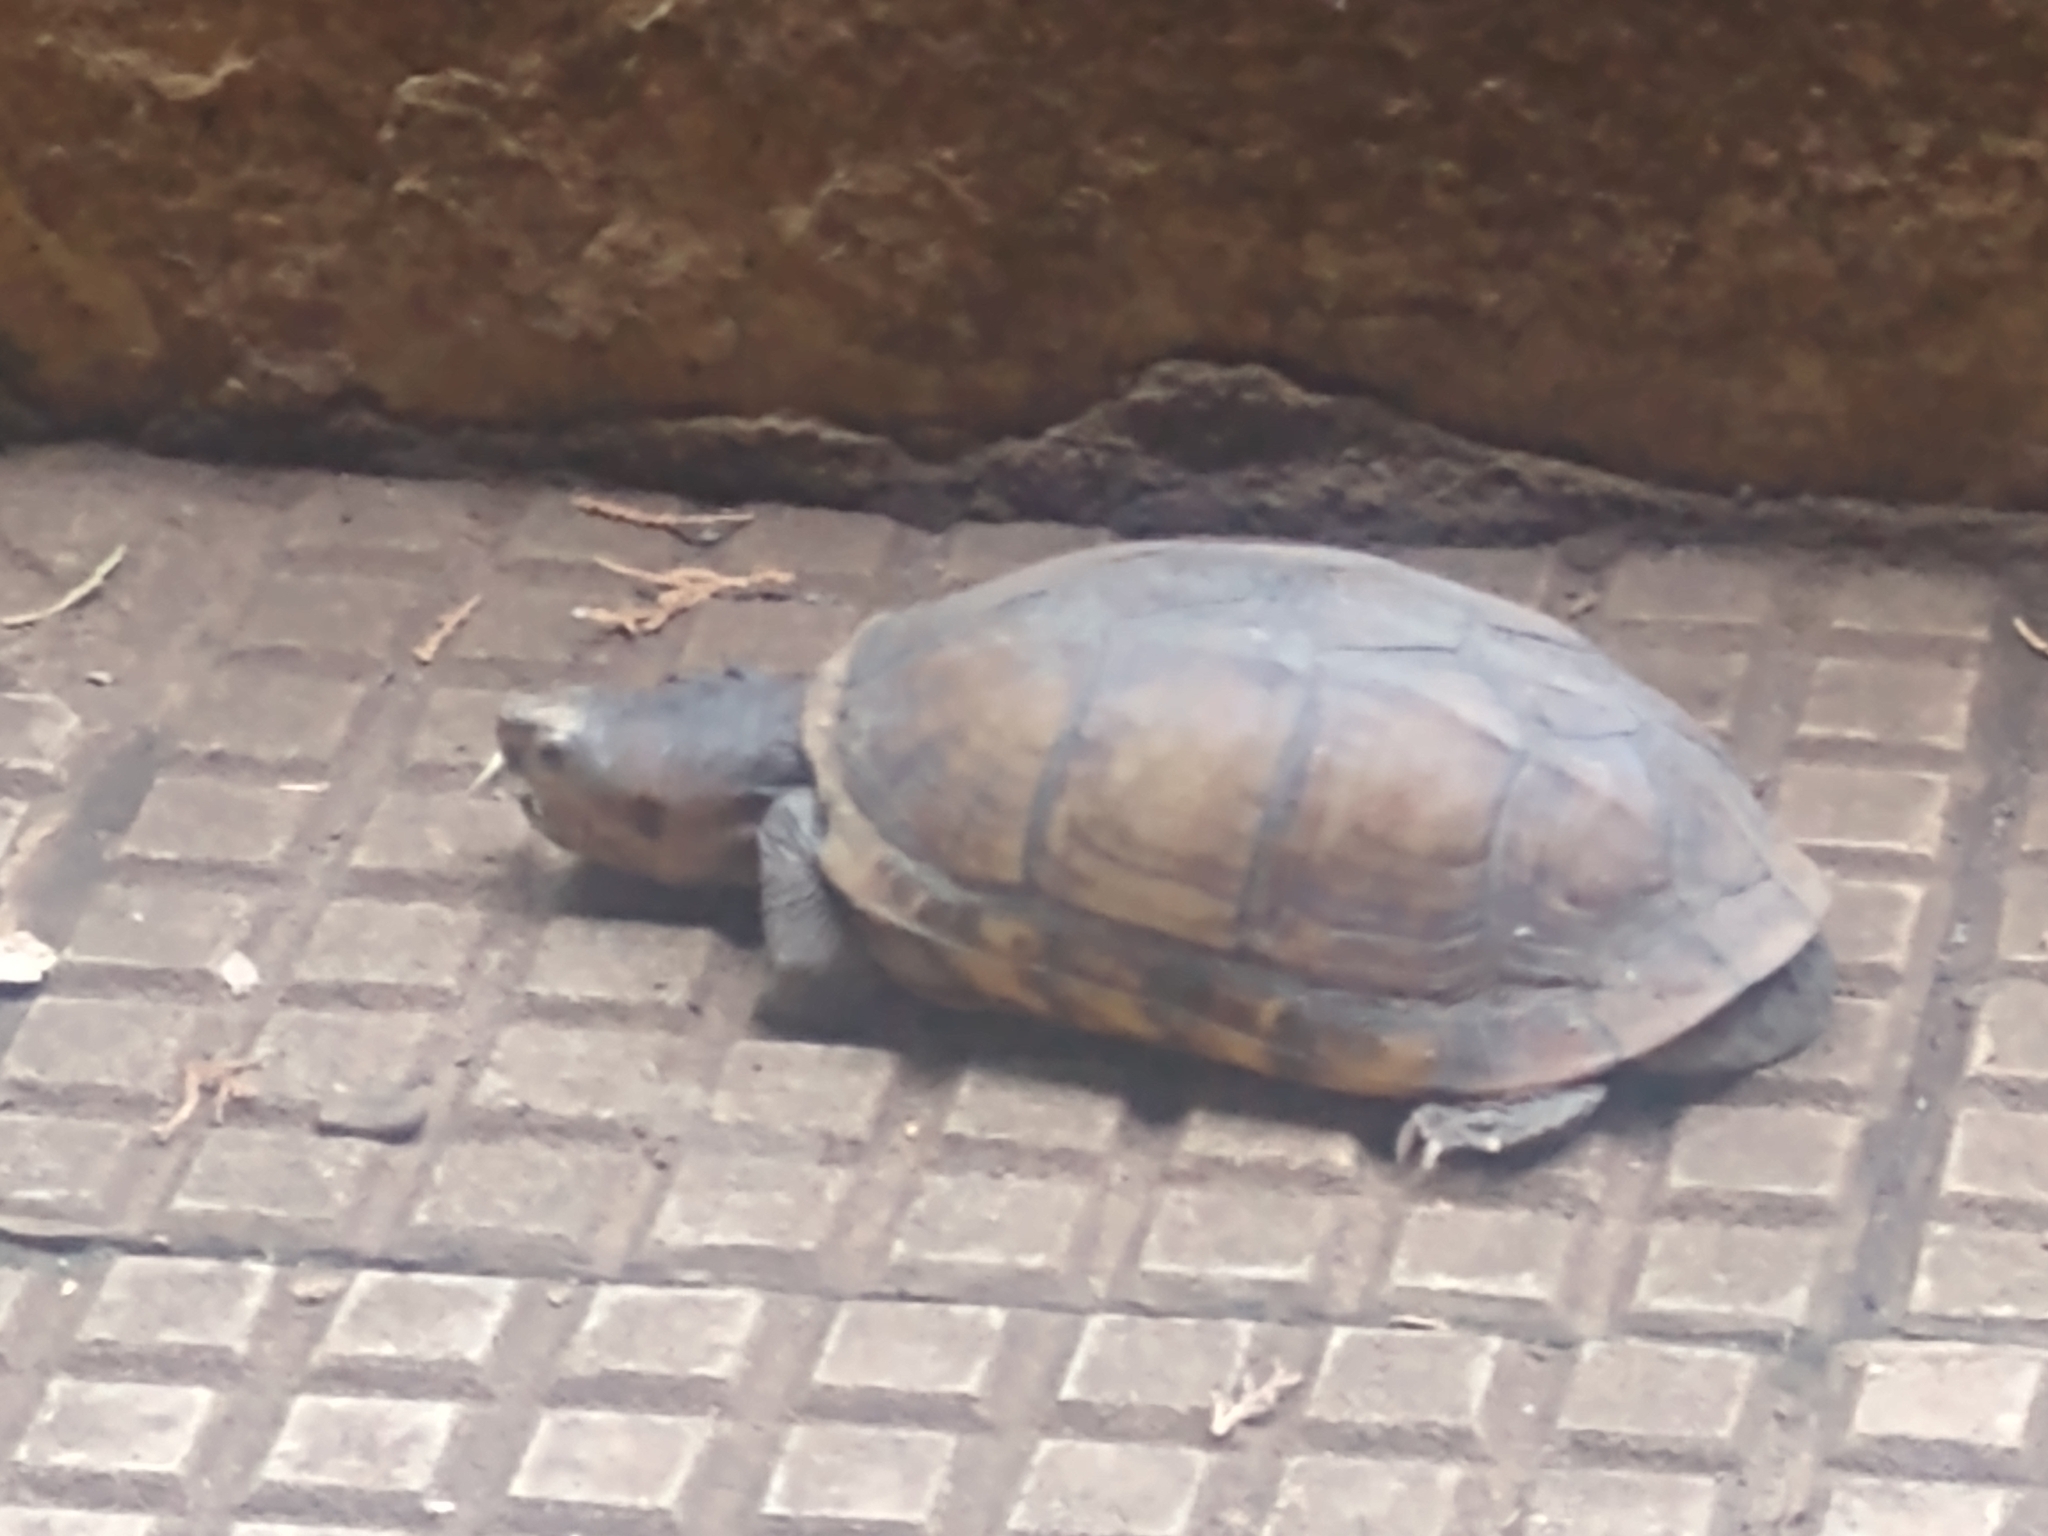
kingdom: Animalia
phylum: Chordata
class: Testudines
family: Kinosternidae
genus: Kinosternon
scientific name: Kinosternon scorpioides
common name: Scorpion mud turtle
